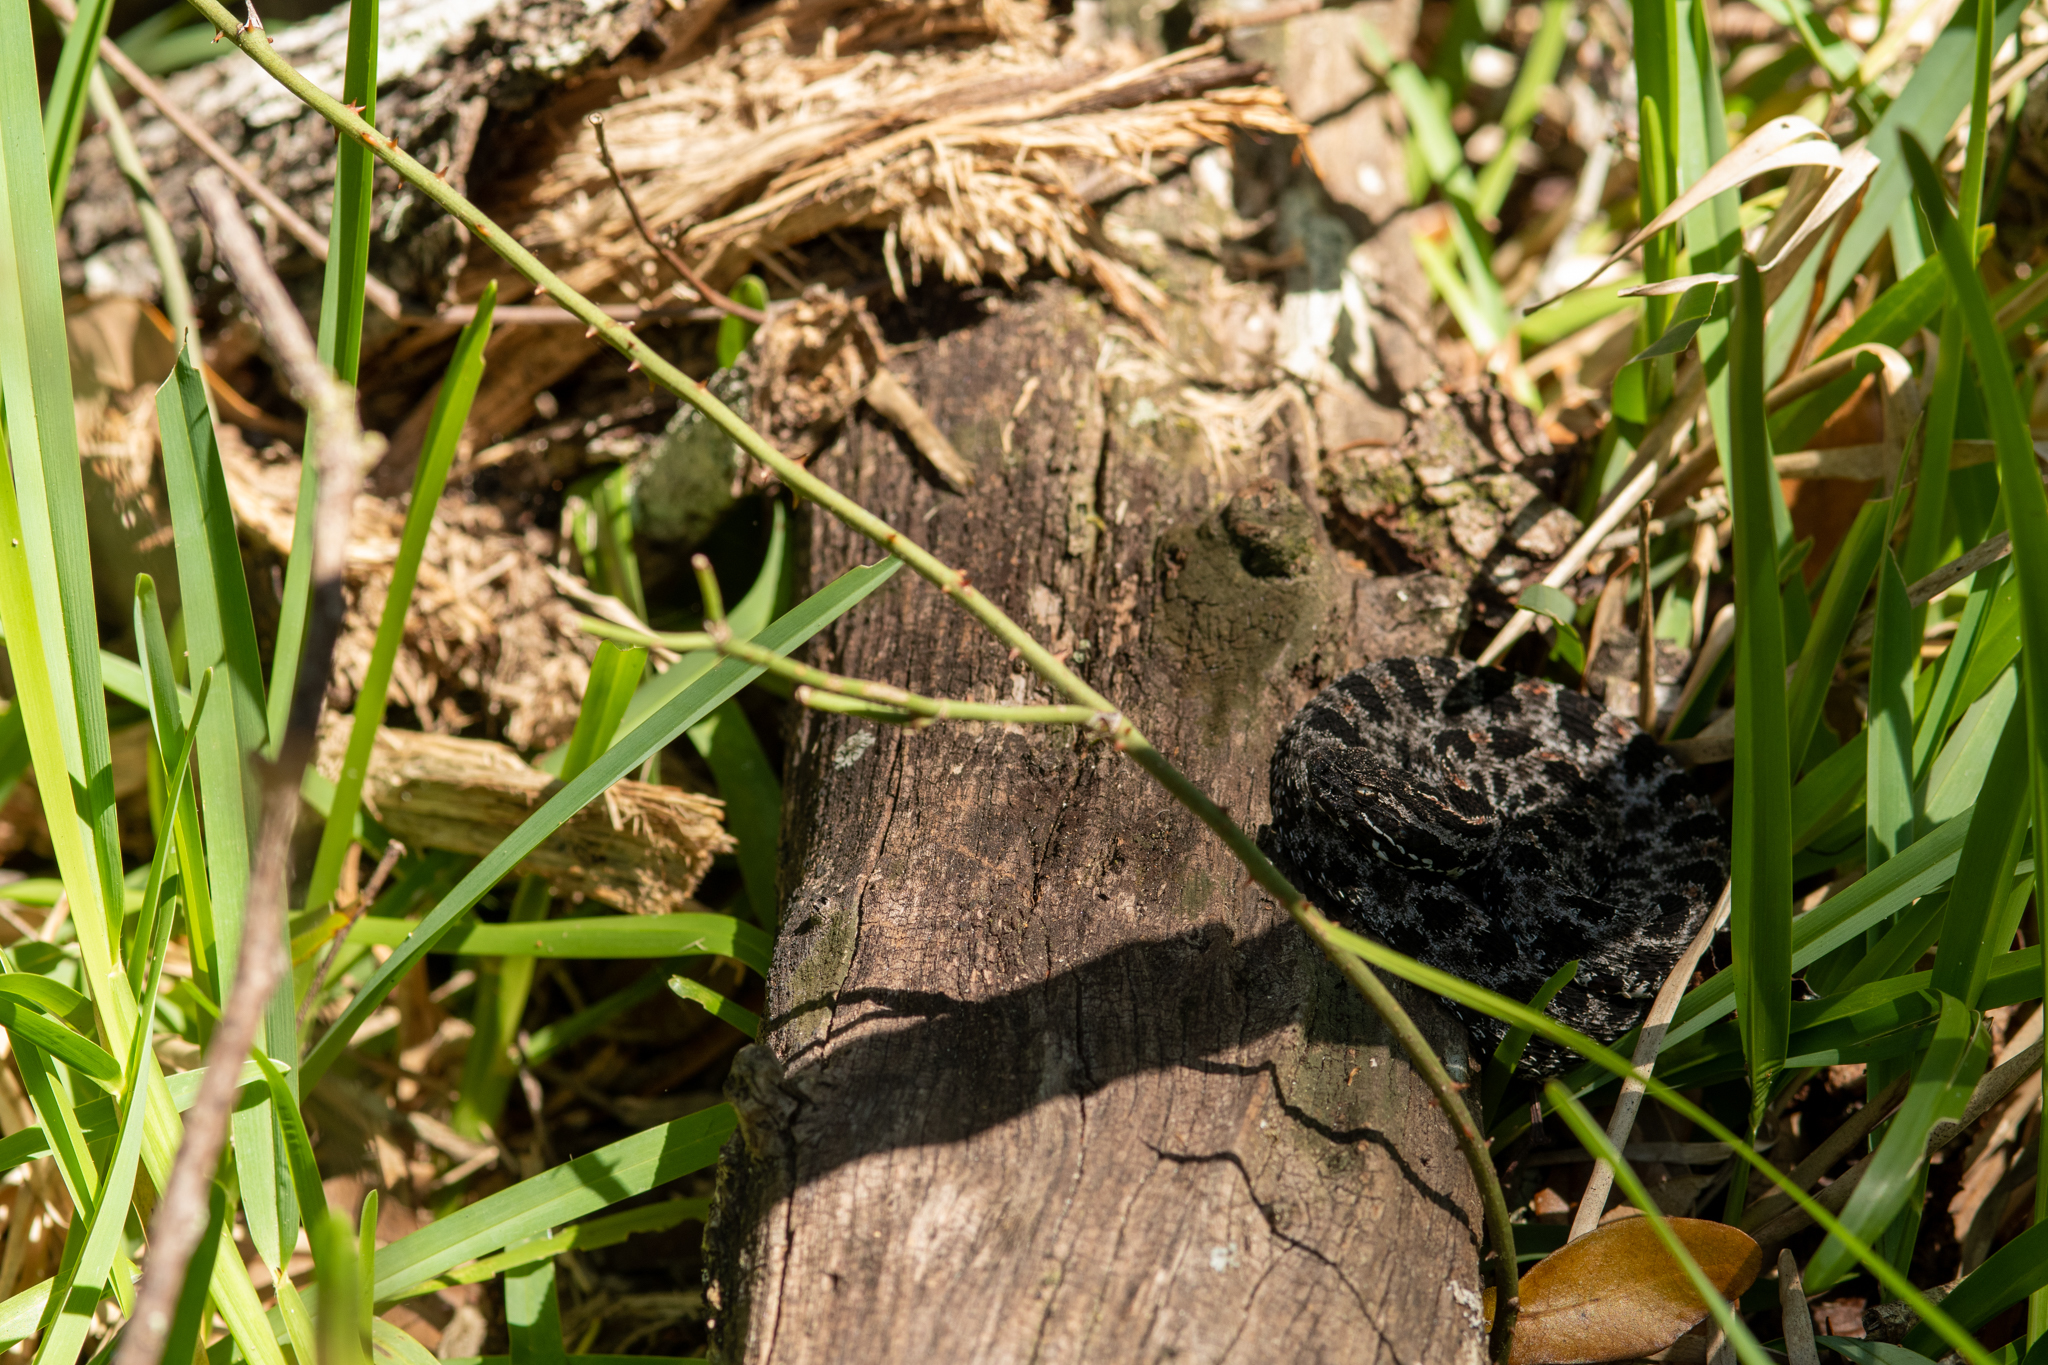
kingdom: Animalia
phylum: Chordata
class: Squamata
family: Viperidae
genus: Sistrurus
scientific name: Sistrurus miliarius
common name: Pygmy rattlesnake
